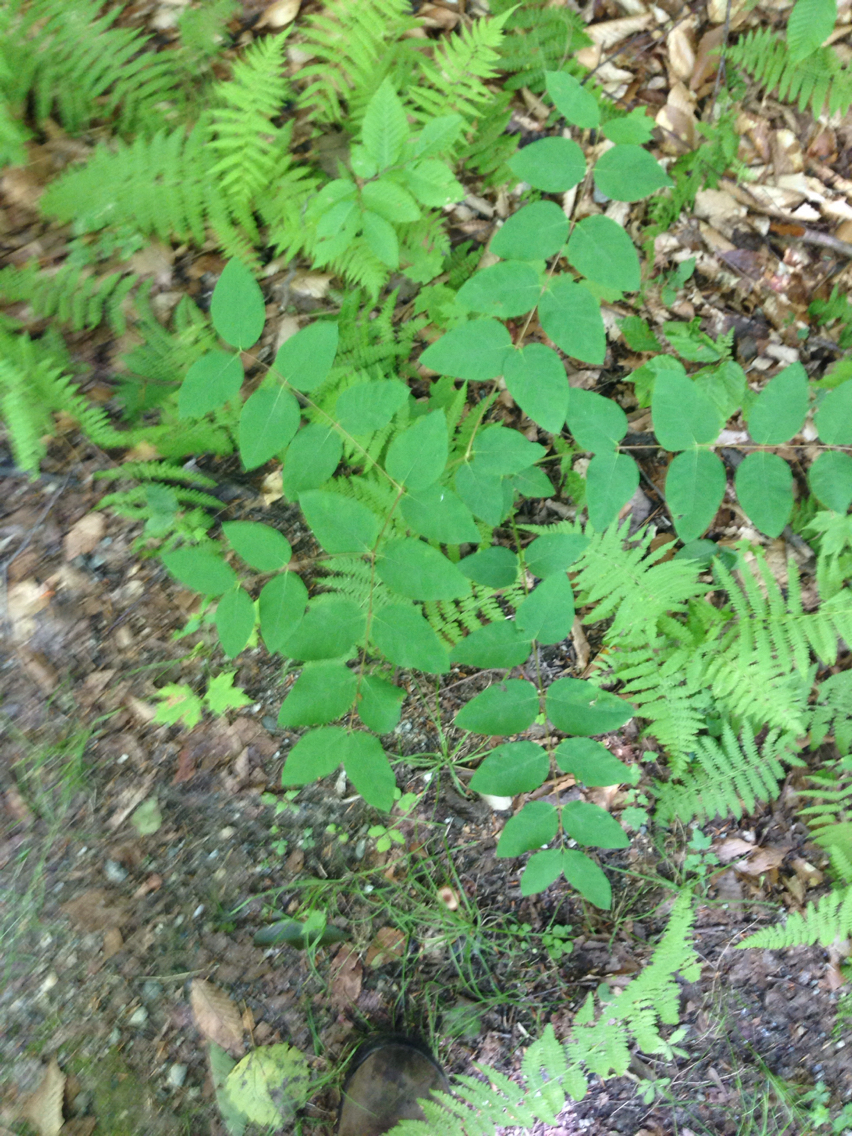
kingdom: Plantae
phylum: Tracheophyta
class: Magnoliopsida
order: Gentianales
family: Apocynaceae
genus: Apocynum
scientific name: Apocynum androsaemifolium
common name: Spreading dogbane
